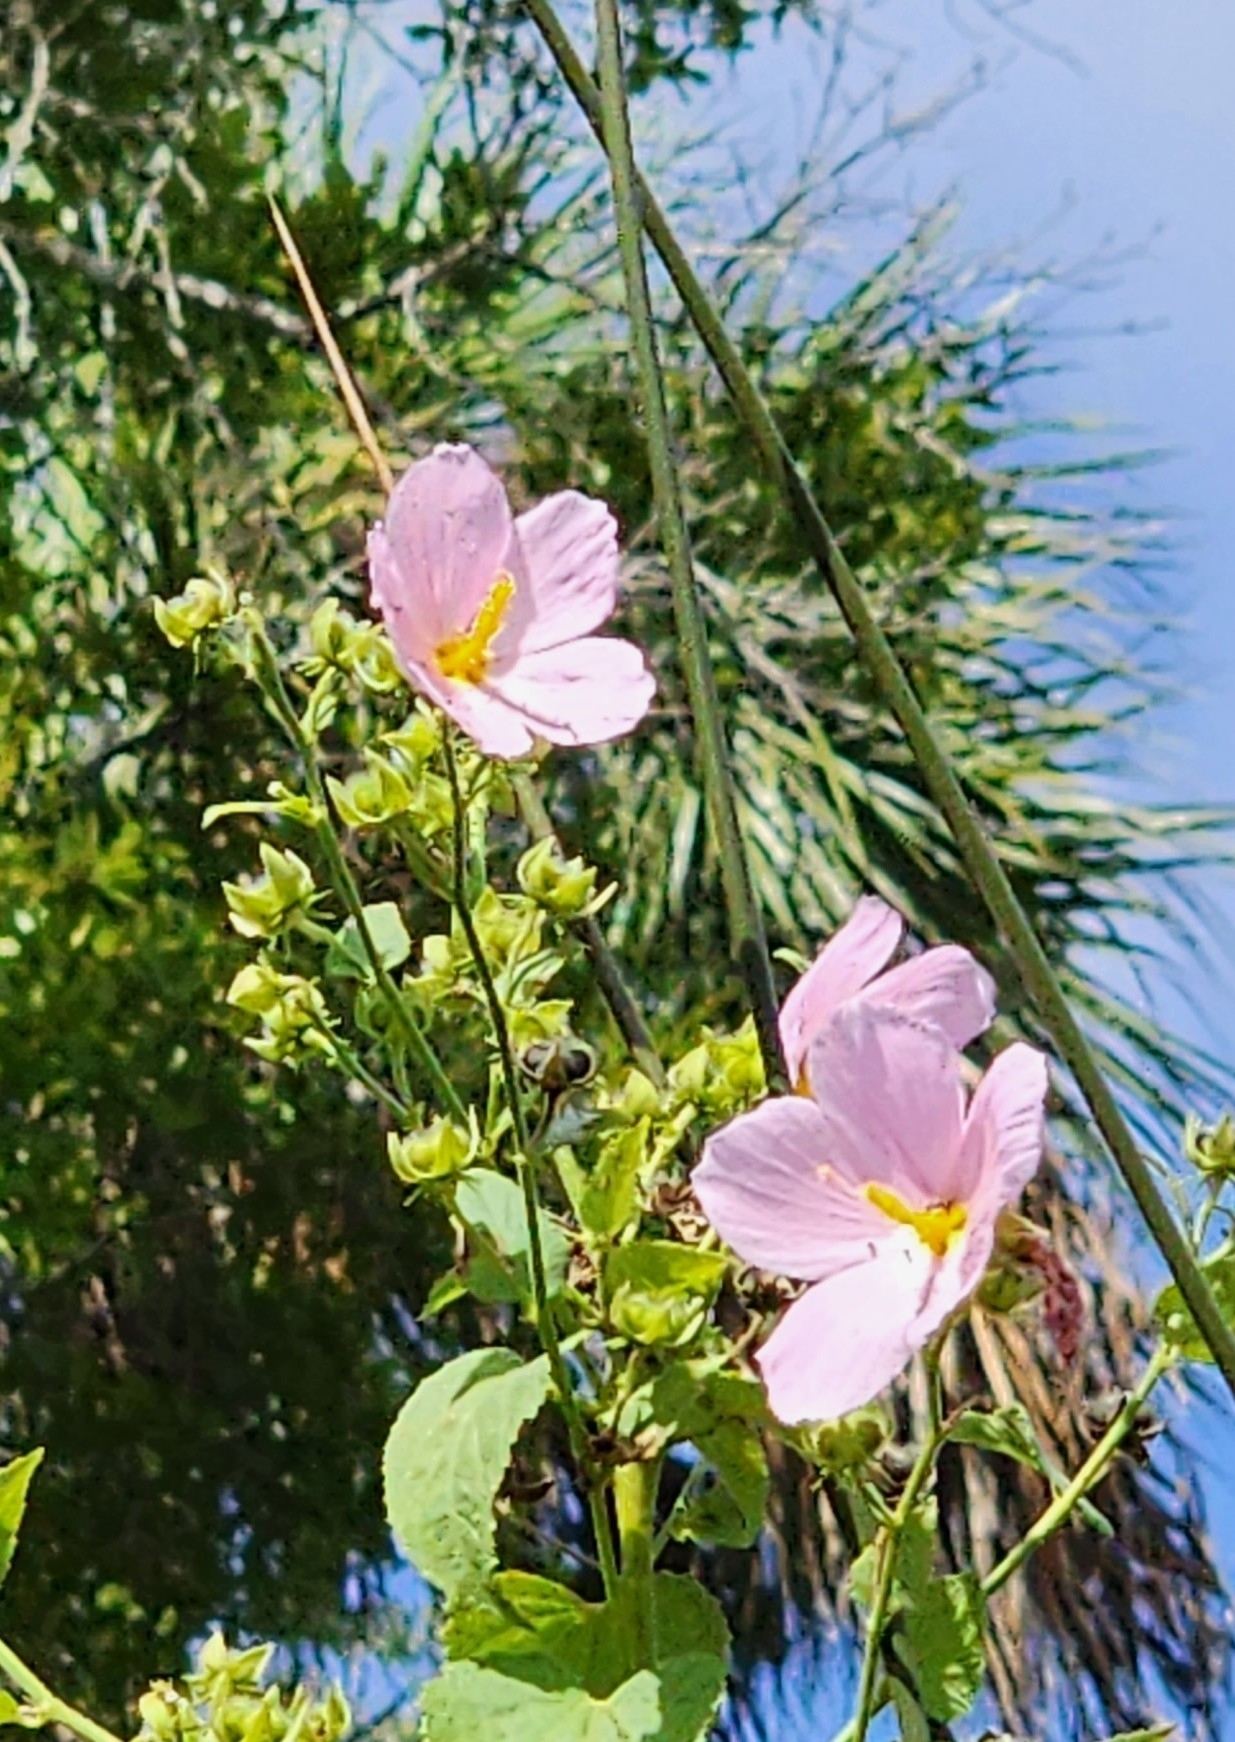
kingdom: Plantae
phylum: Tracheophyta
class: Magnoliopsida
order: Malvales
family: Malvaceae
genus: Kosteletzkya
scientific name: Kosteletzkya pentacarpos
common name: Virginia saltmarsh mallow
